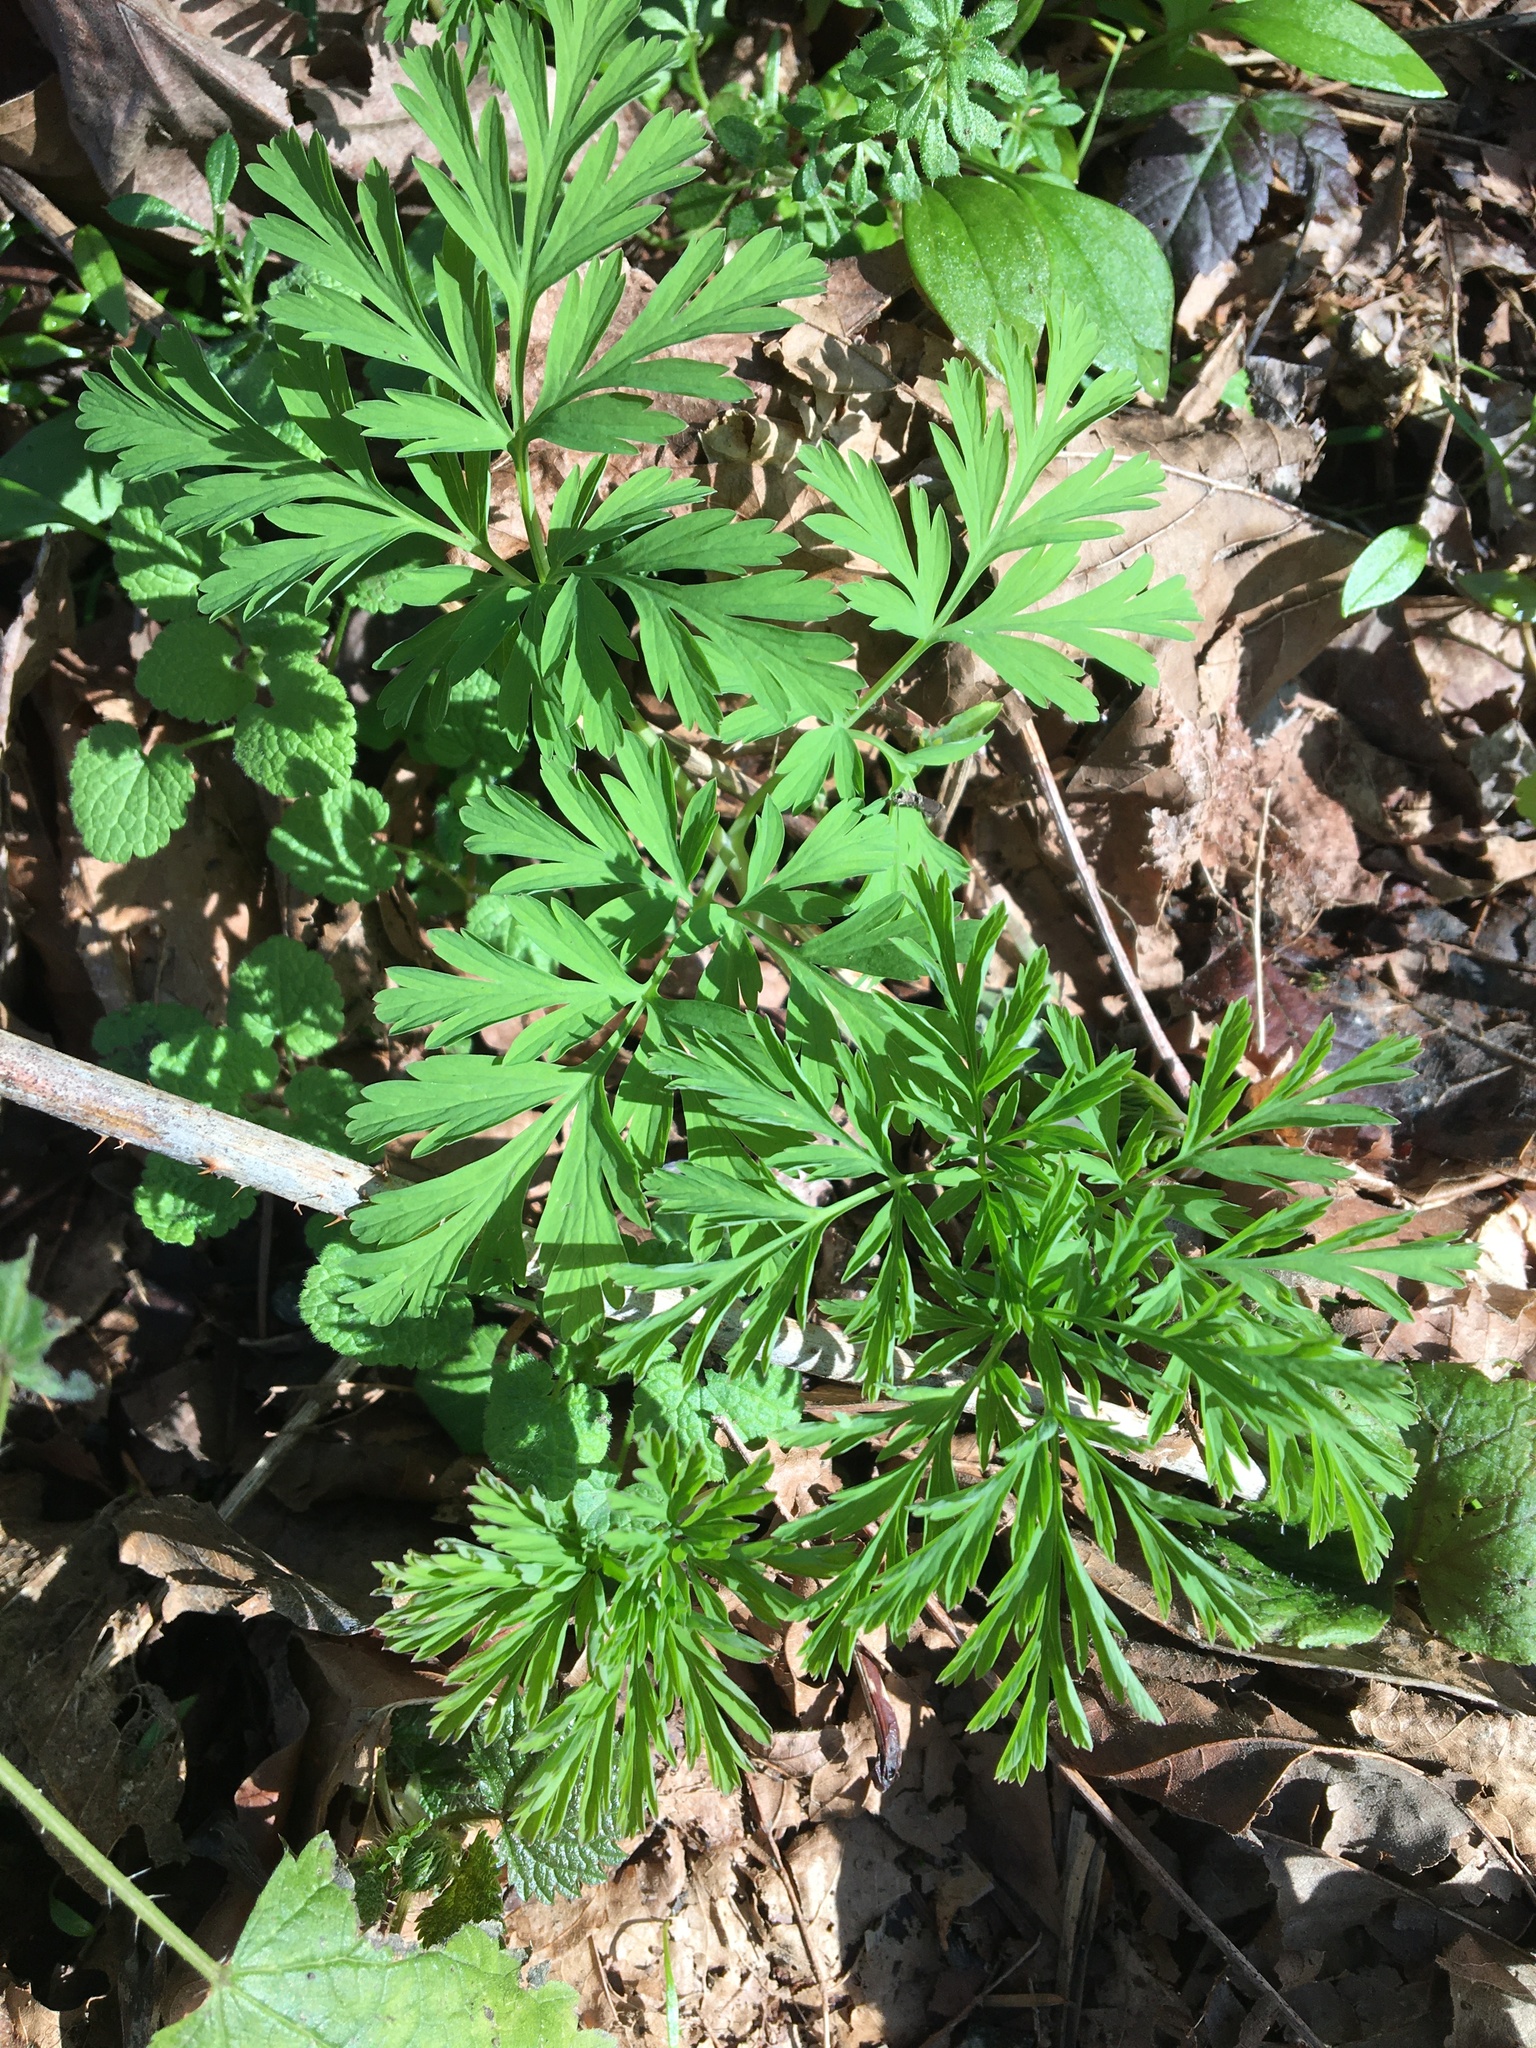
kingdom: Plantae
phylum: Tracheophyta
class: Magnoliopsida
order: Ranunculales
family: Papaveraceae
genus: Dicentra
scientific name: Dicentra formosa
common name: Bleeding-heart
